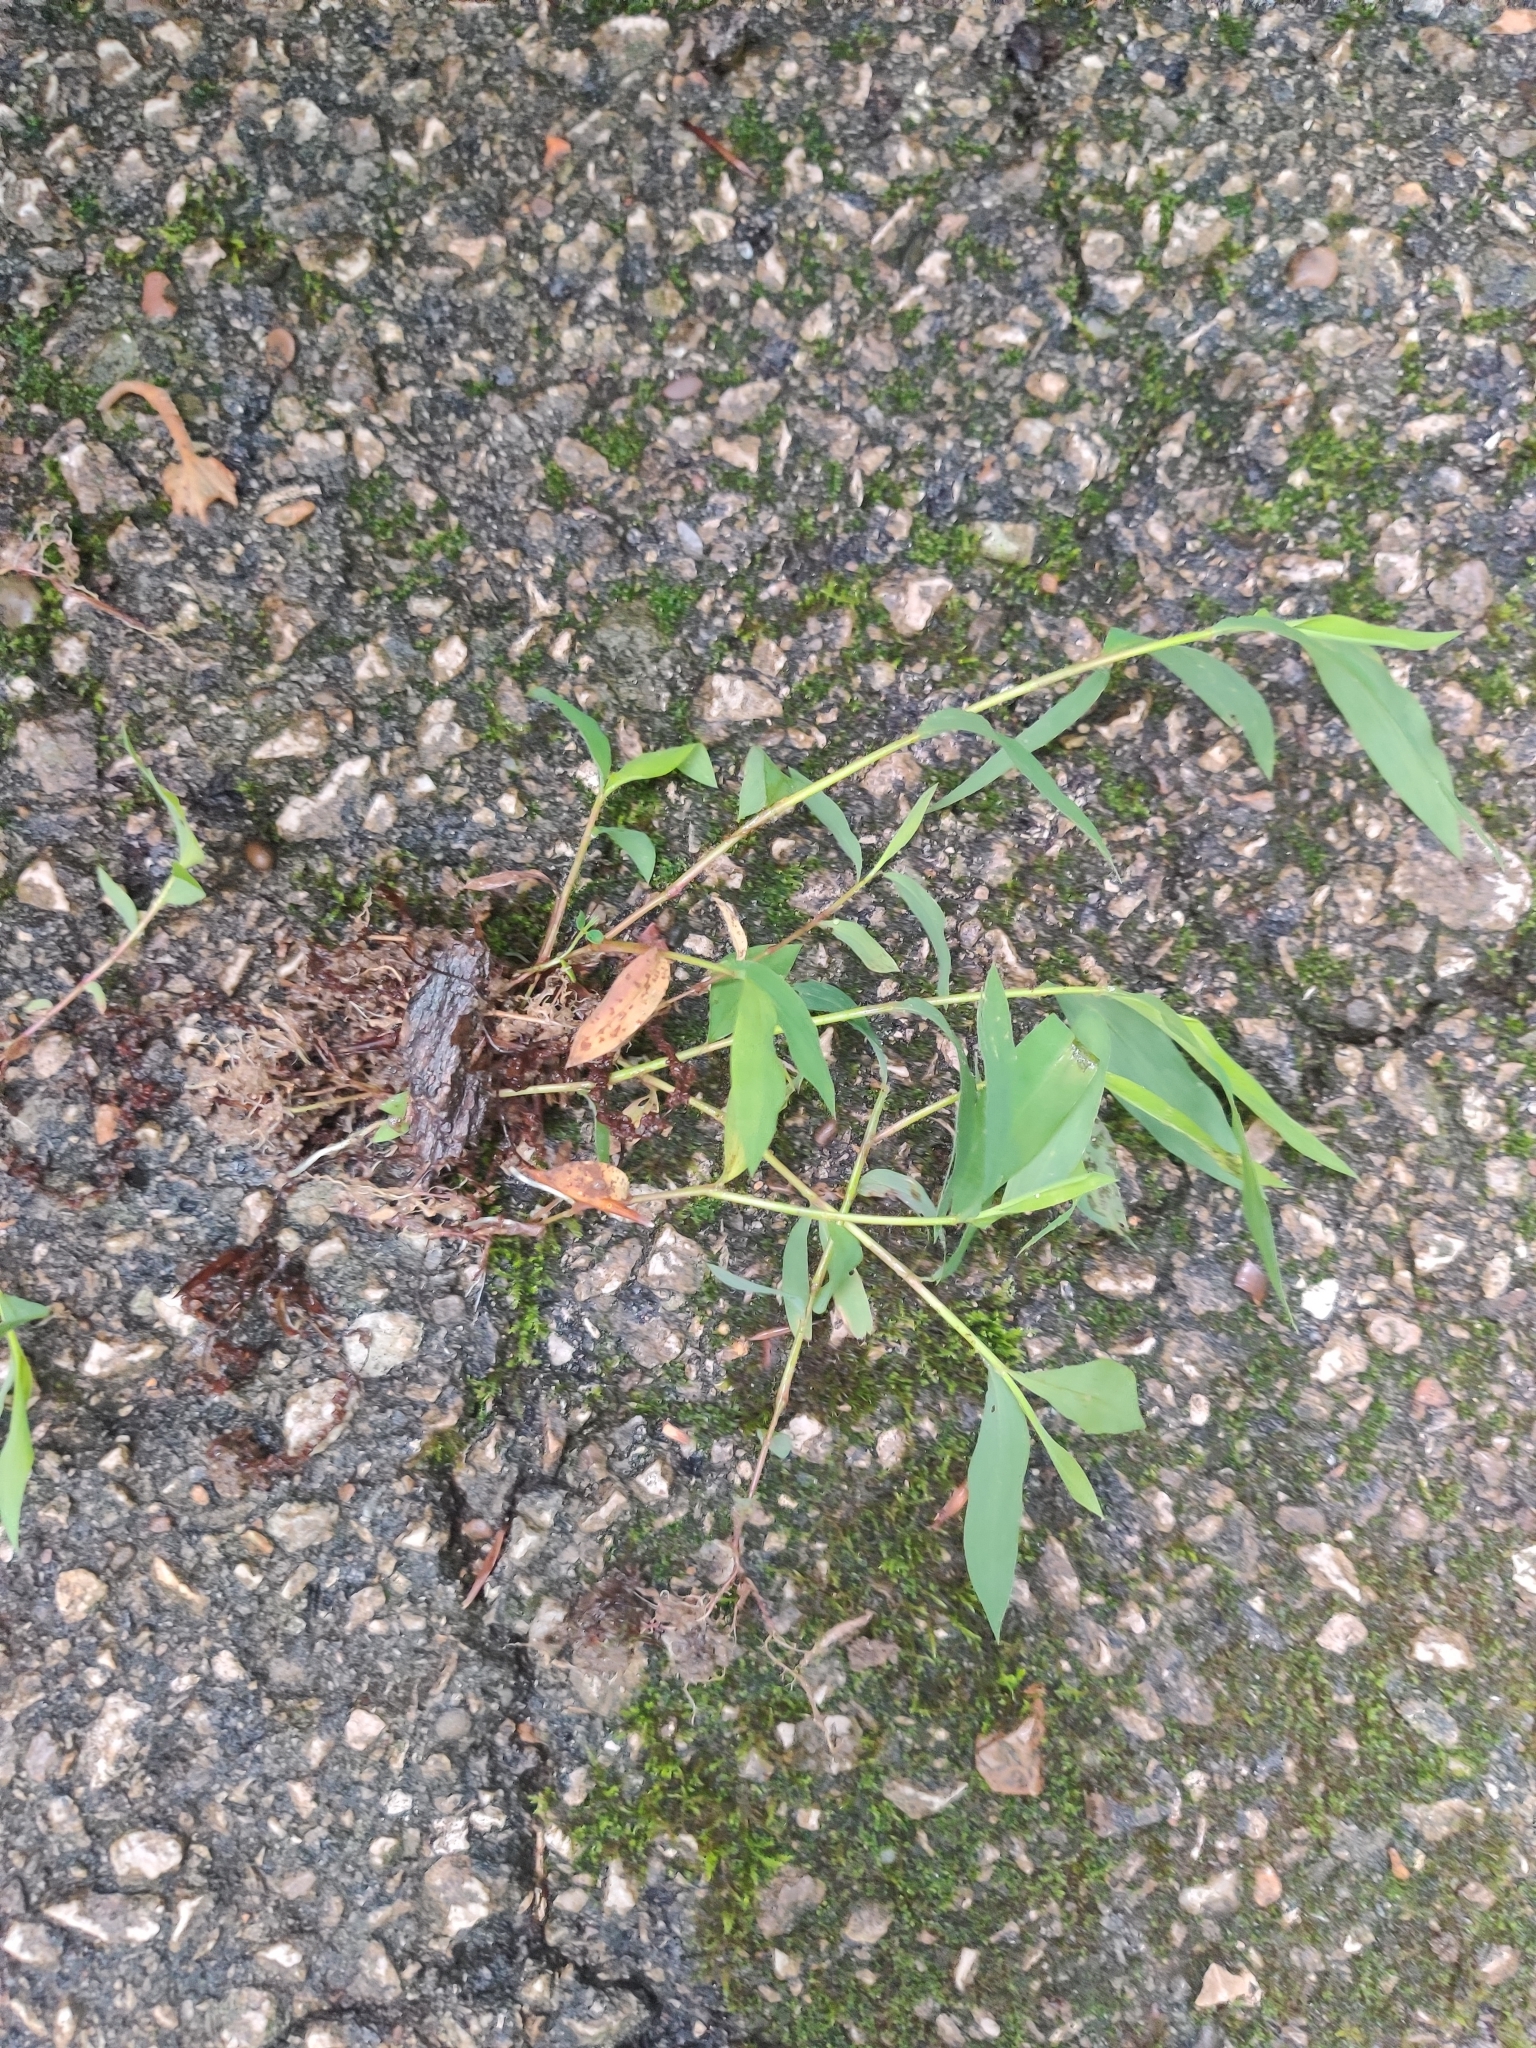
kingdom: Plantae
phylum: Tracheophyta
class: Liliopsida
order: Poales
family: Poaceae
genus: Microstegium
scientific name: Microstegium vimineum
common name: Japanese stiltgrass
